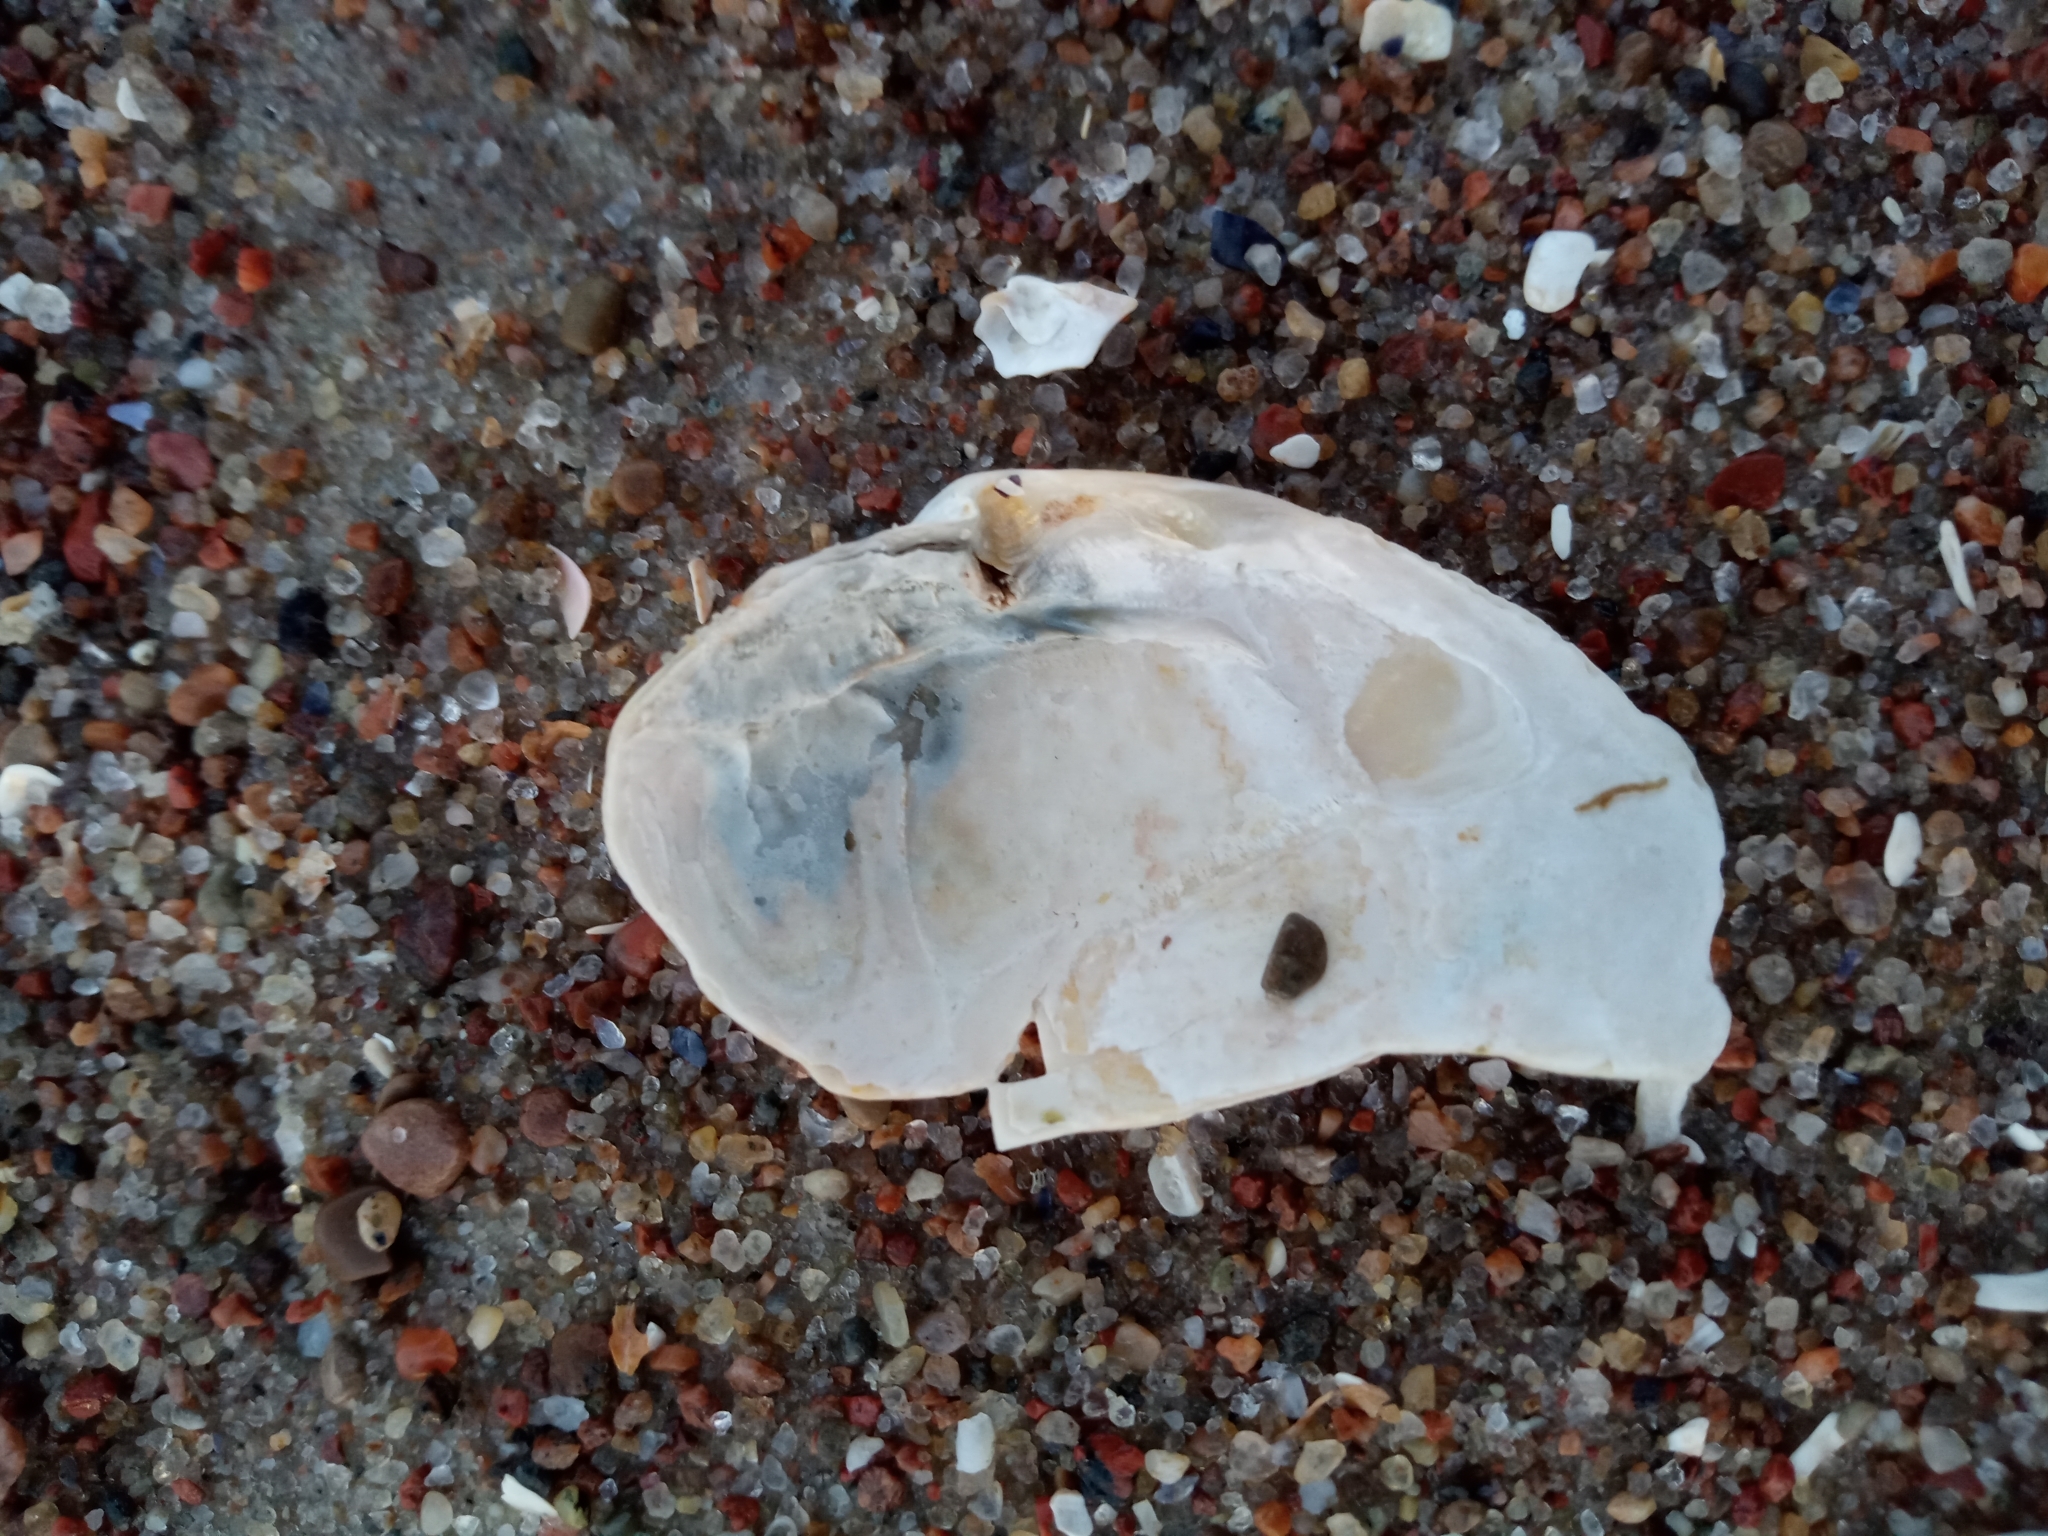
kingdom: Animalia
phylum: Mollusca
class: Bivalvia
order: Myida
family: Myidae
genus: Mya
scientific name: Mya arenaria
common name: Soft-shelled clam
